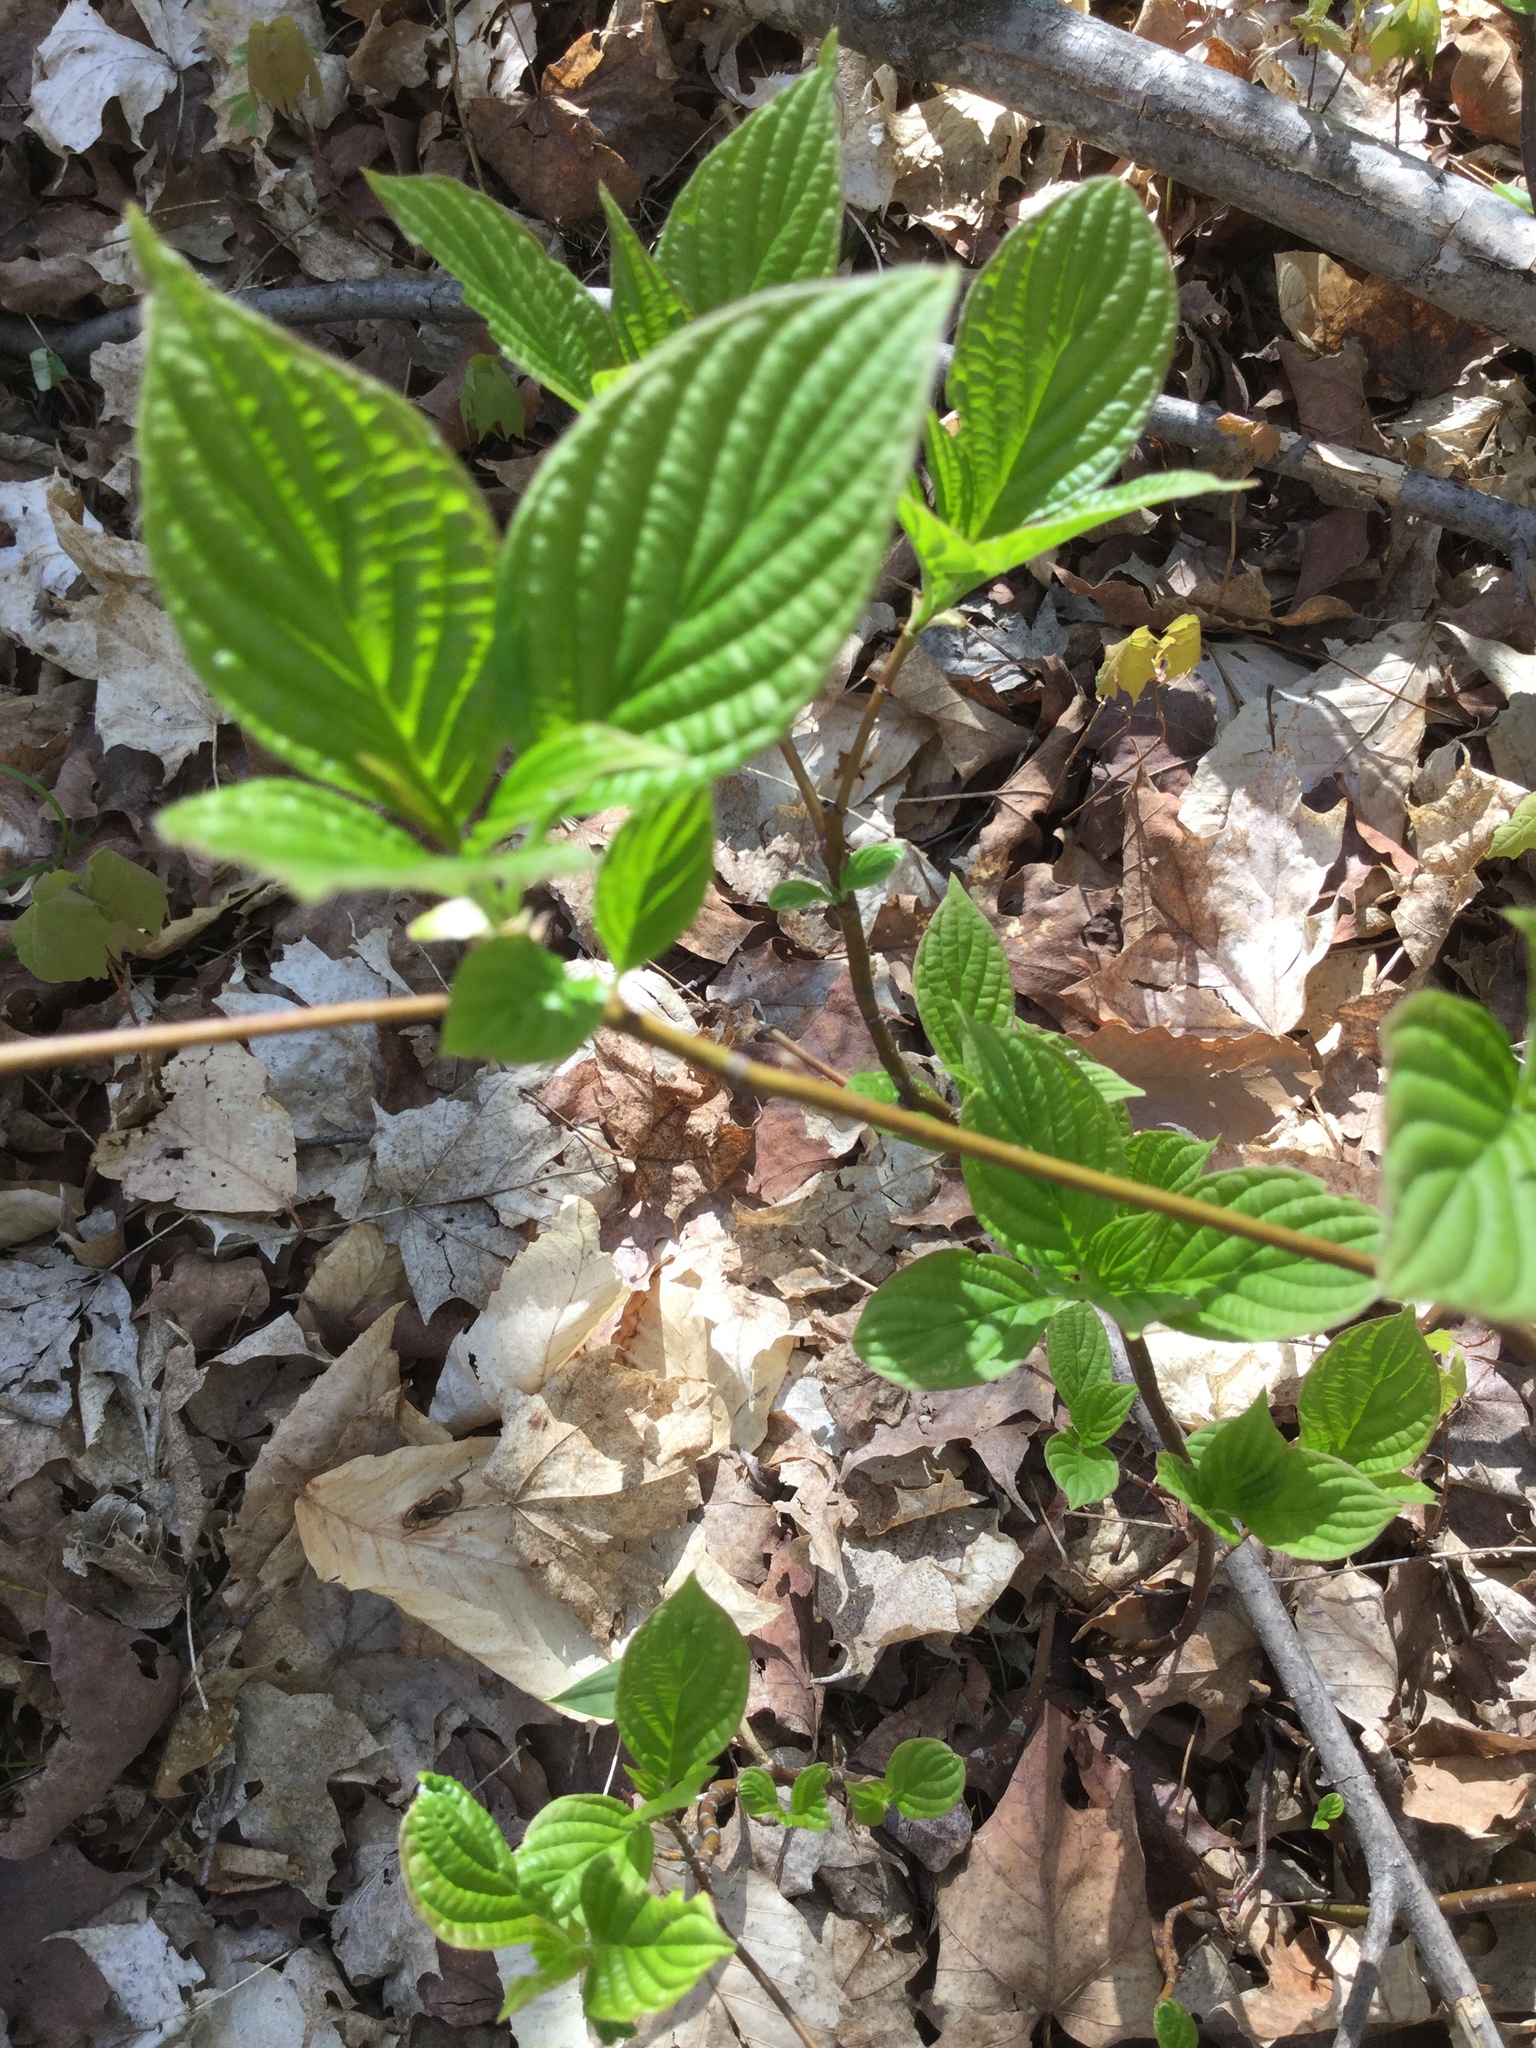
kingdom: Plantae
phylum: Tracheophyta
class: Magnoliopsida
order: Cornales
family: Cornaceae
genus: Cornus
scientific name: Cornus alternifolia
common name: Pagoda dogwood
